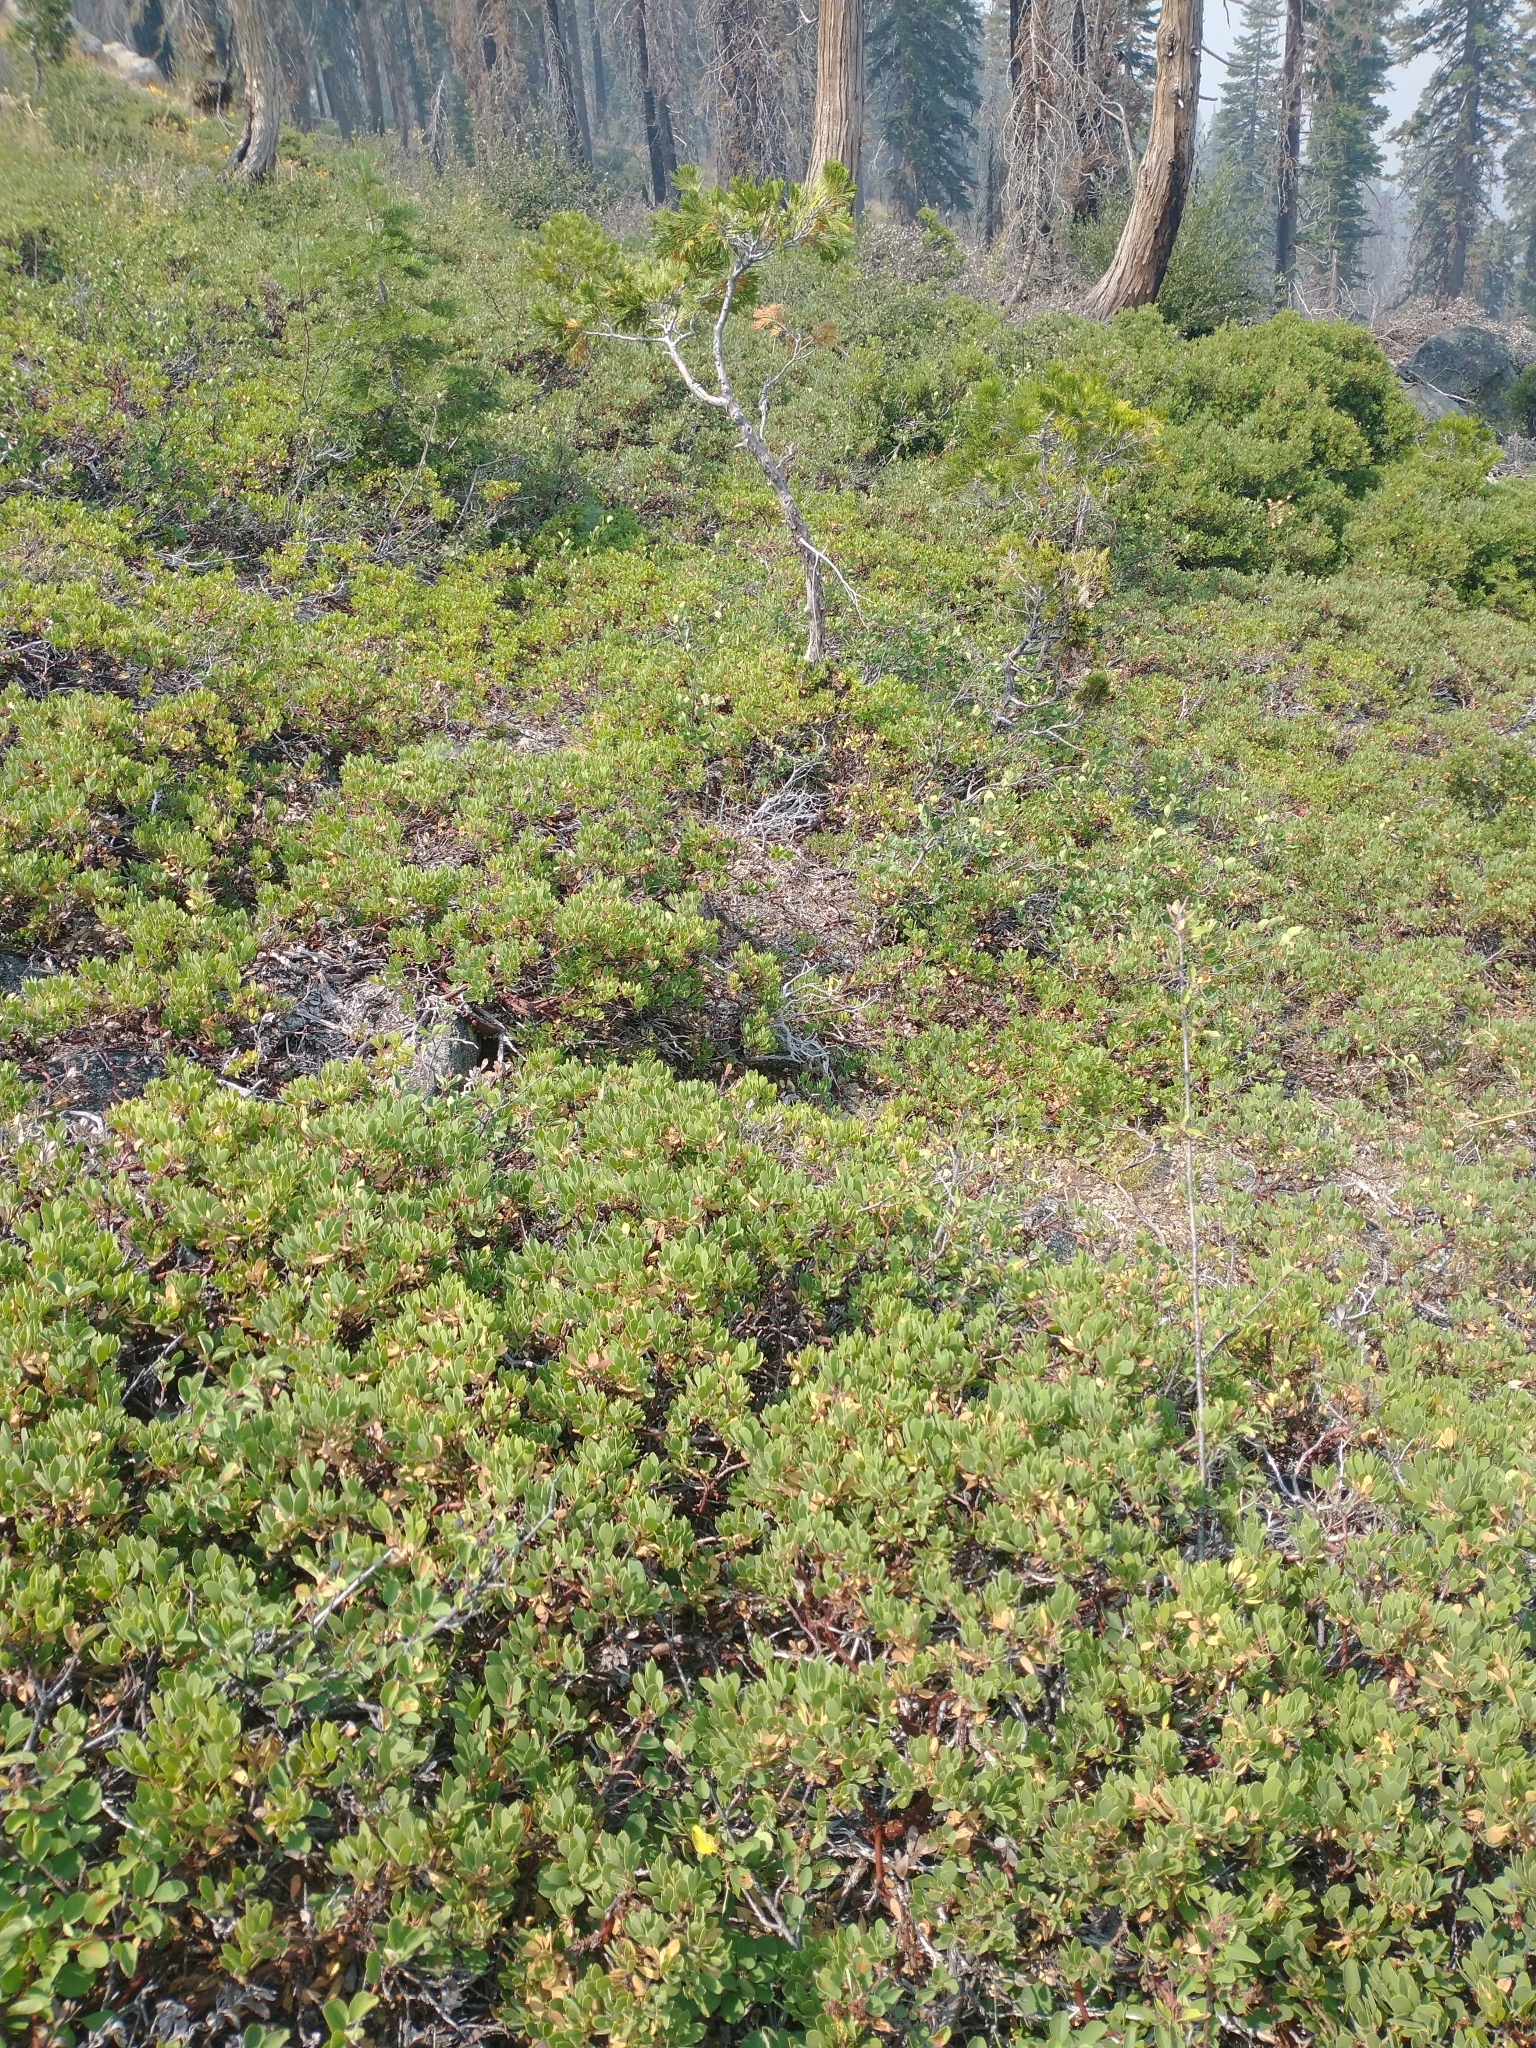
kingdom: Plantae
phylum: Tracheophyta
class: Magnoliopsida
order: Ericales
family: Ericaceae
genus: Arctostaphylos
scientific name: Arctostaphylos nevadensis
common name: Pinemat manzanita
